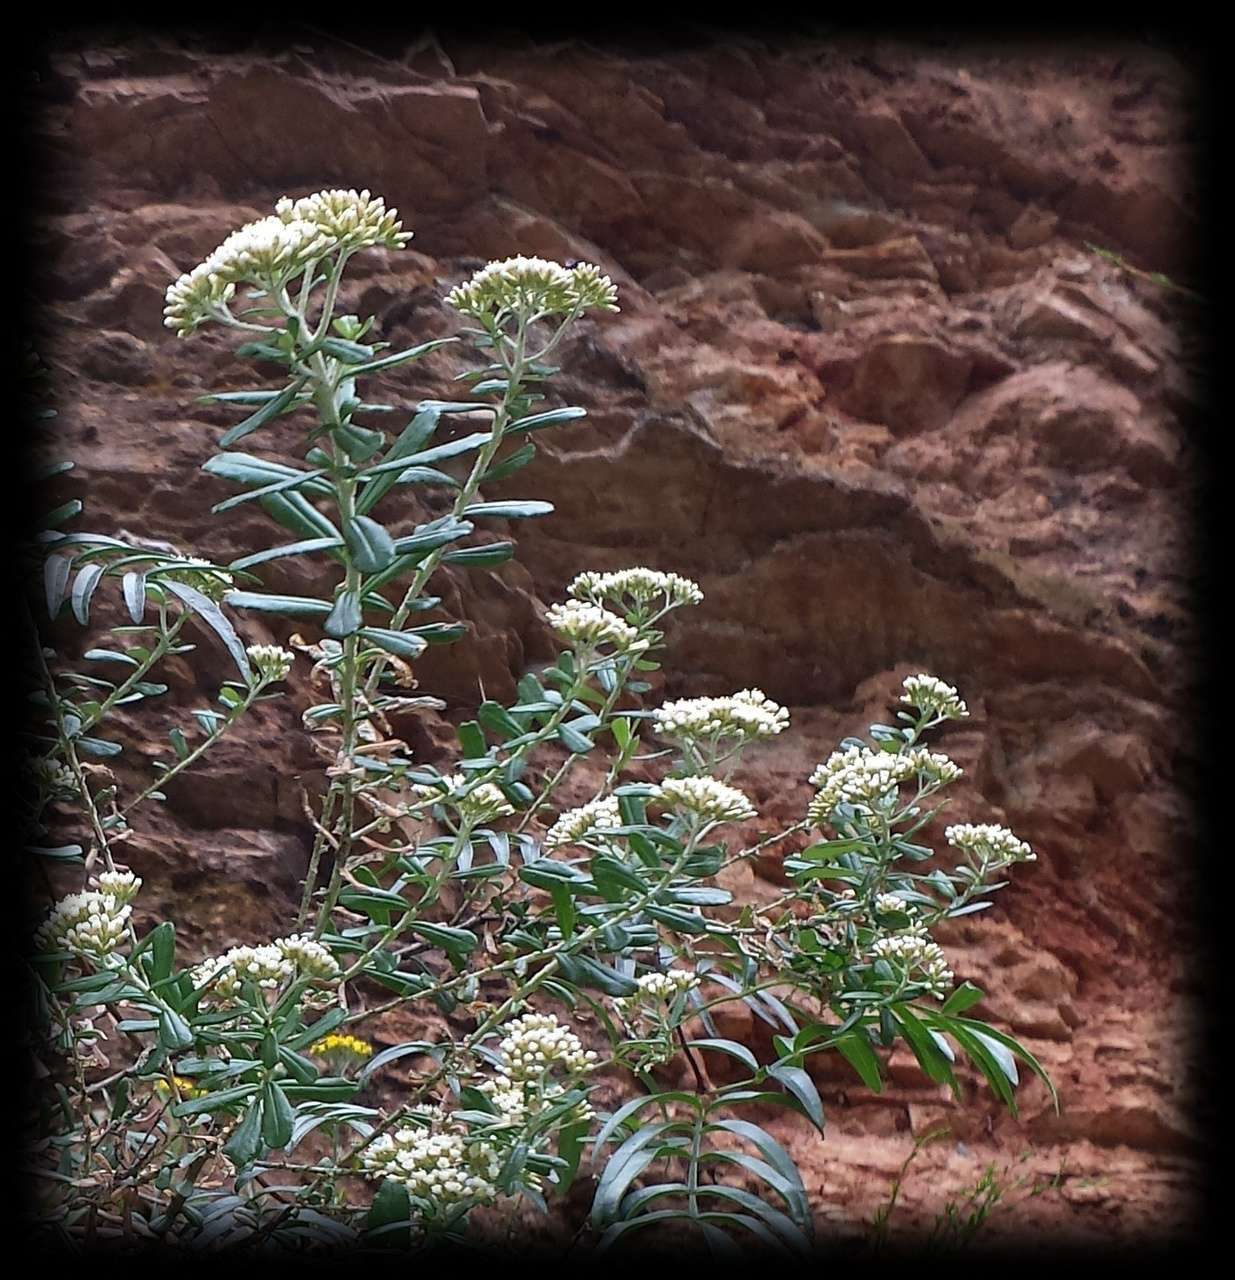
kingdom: Plantae
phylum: Tracheophyta
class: Magnoliopsida
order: Asterales
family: Asteraceae
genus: Ozothamnus
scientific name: Ozothamnus cuneifolius
